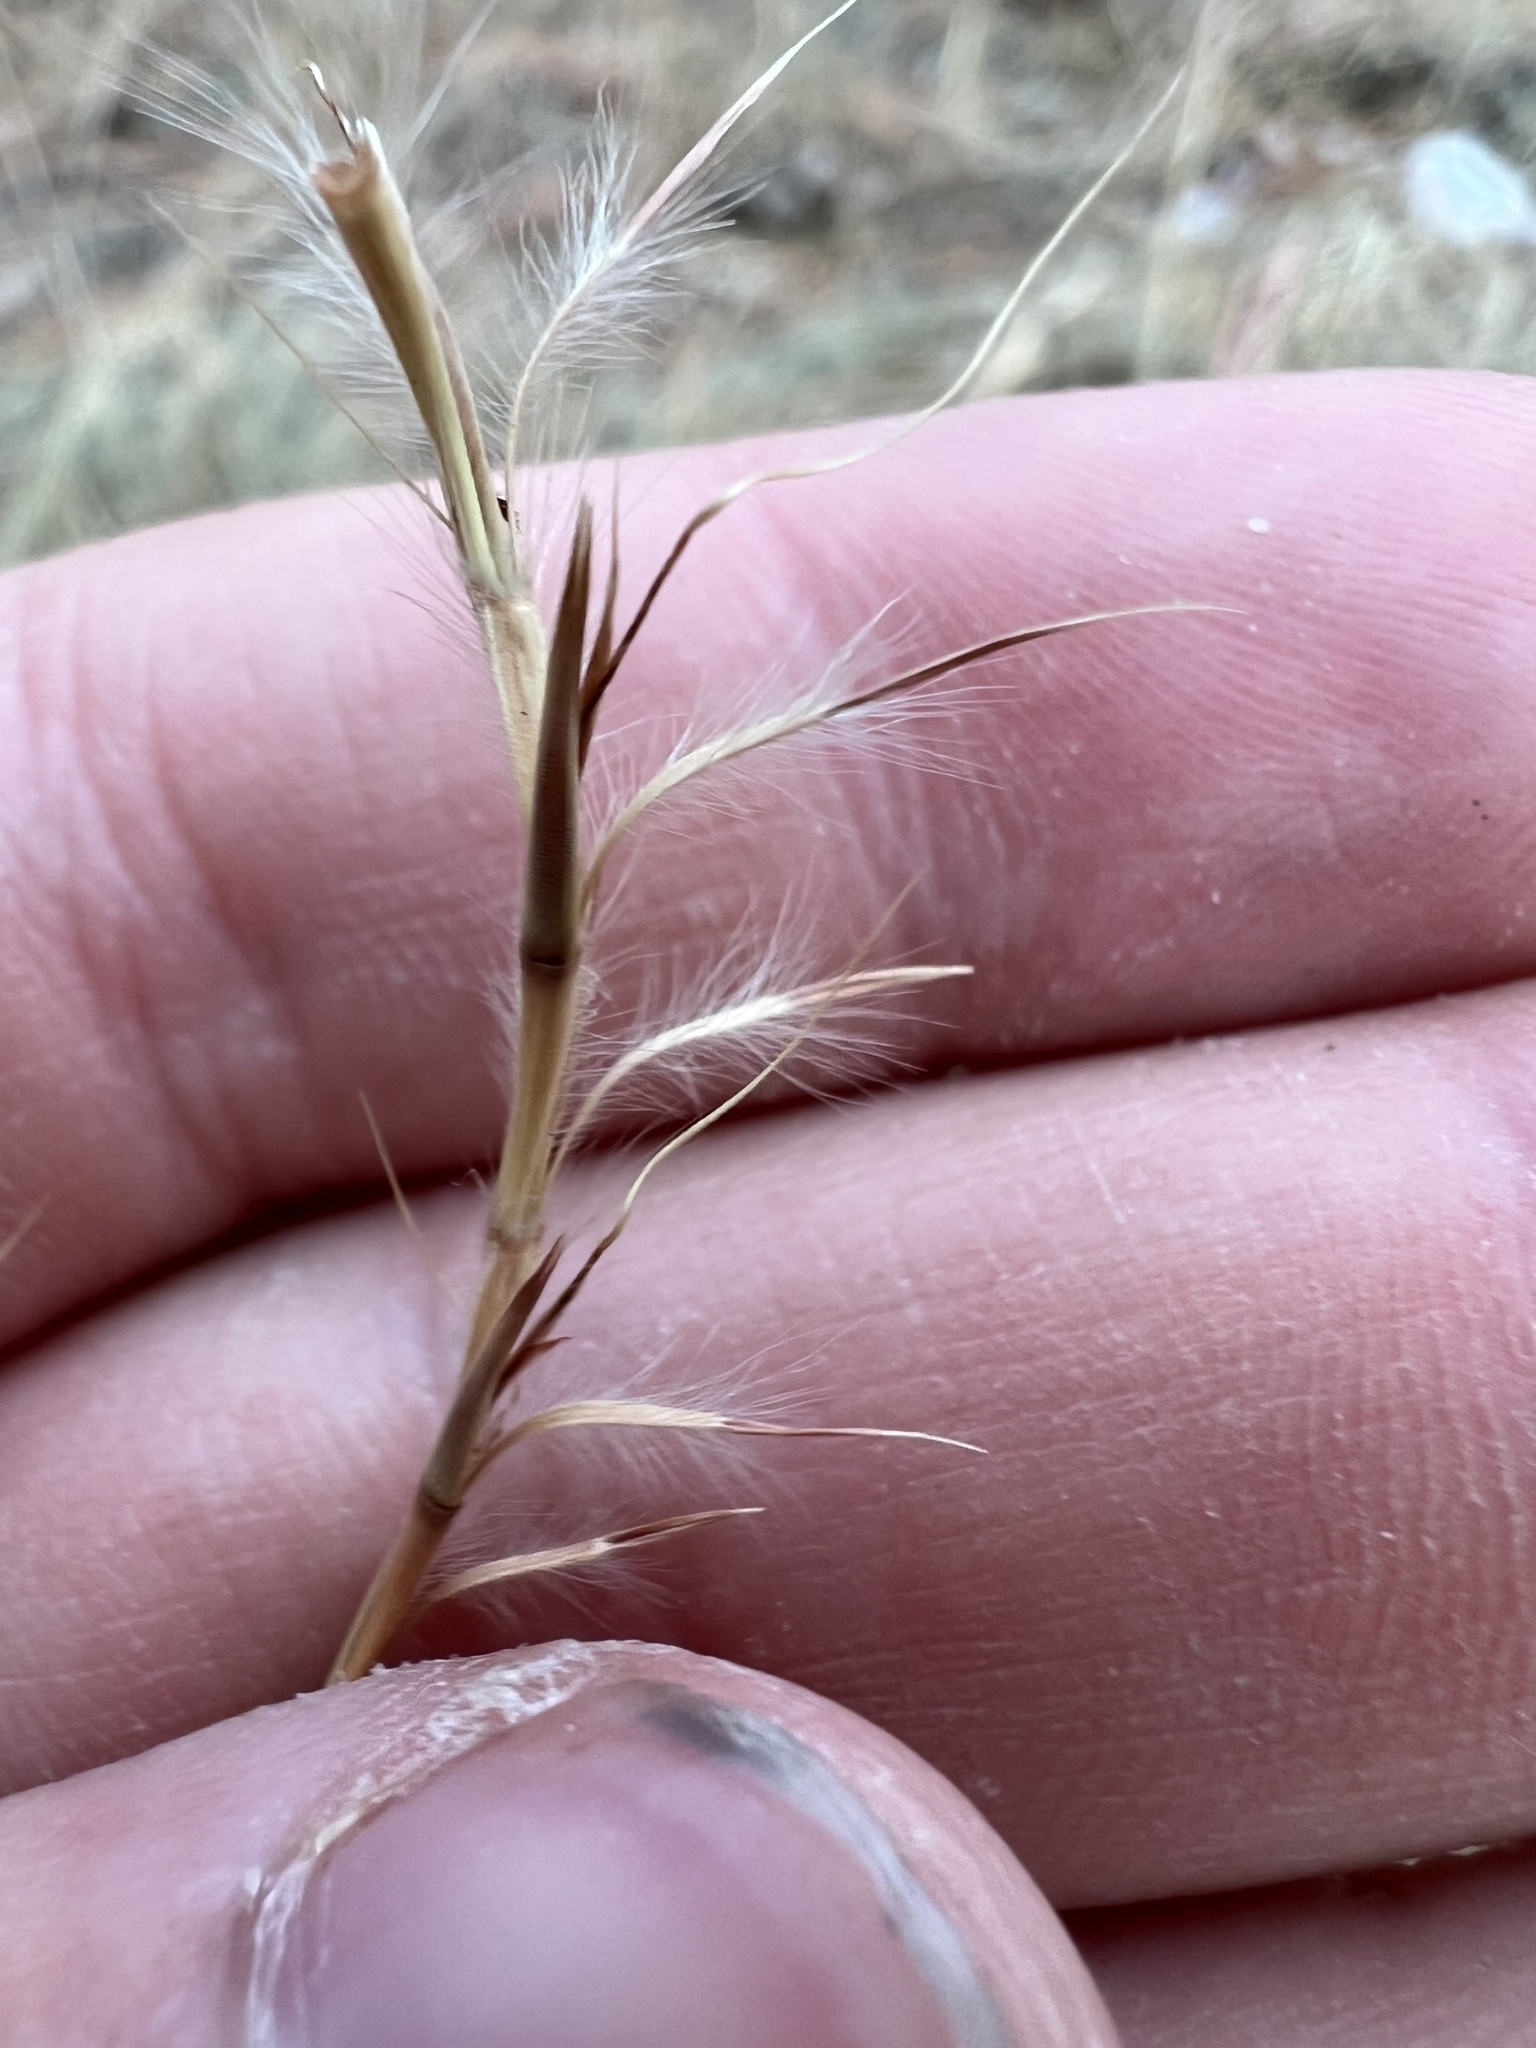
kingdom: Plantae
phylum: Tracheophyta
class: Liliopsida
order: Poales
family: Poaceae
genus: Schizachyrium
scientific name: Schizachyrium scoparium
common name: Little bluestem
